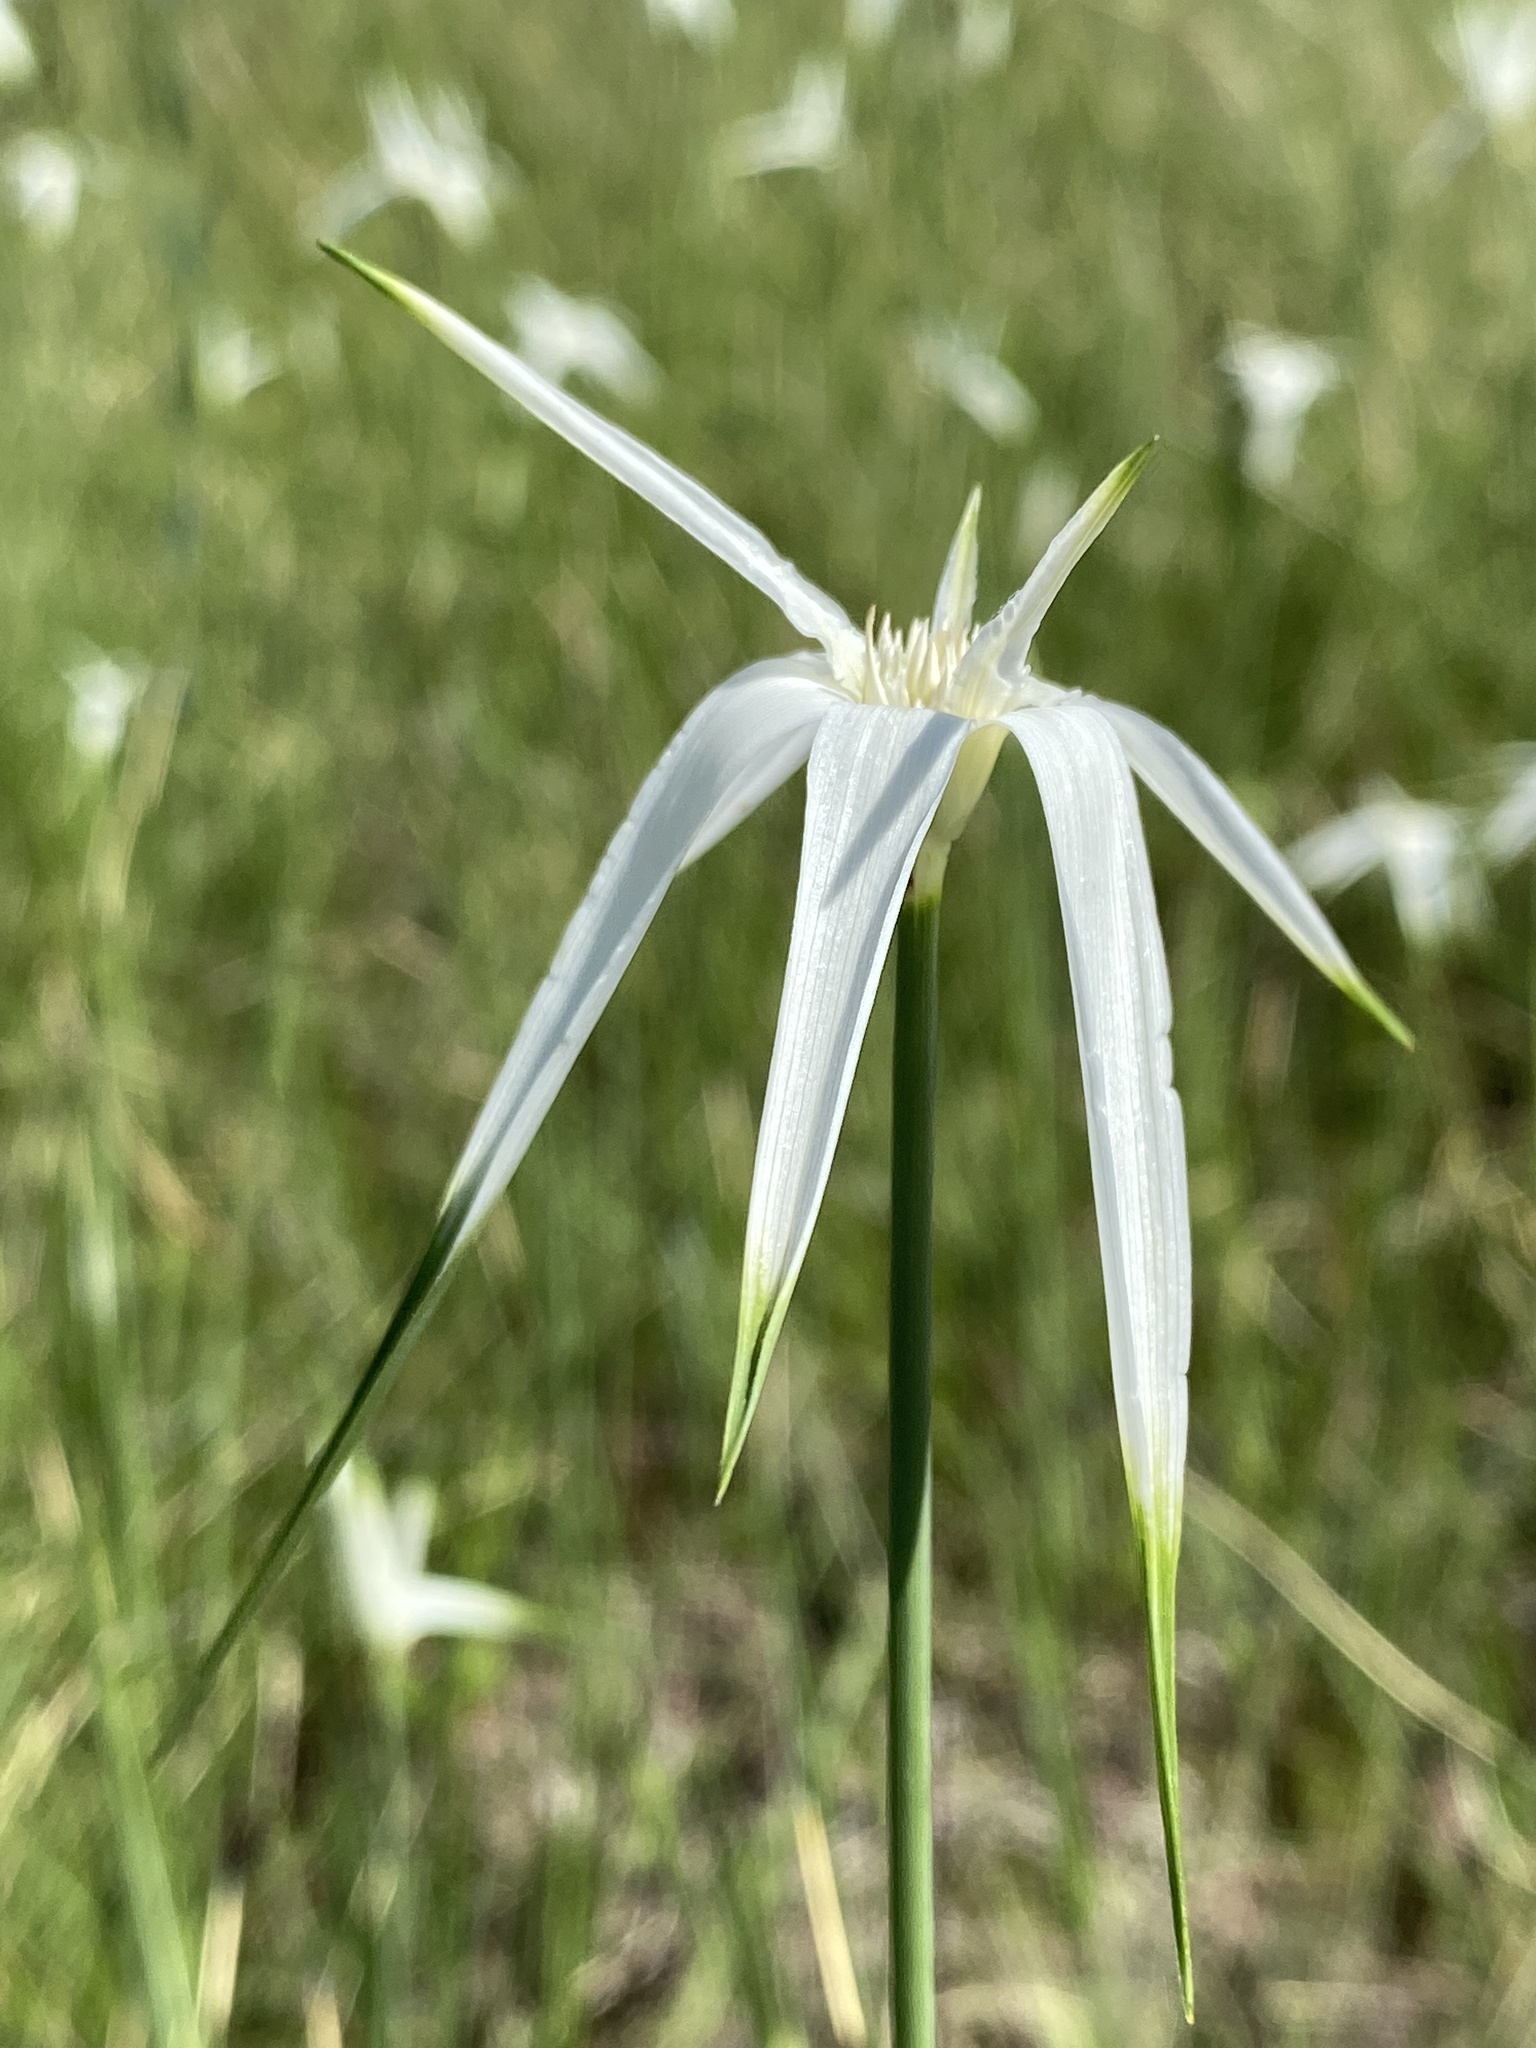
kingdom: Plantae
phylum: Tracheophyta
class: Liliopsida
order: Poales
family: Cyperaceae
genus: Rhynchospora
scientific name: Rhynchospora latifolia
